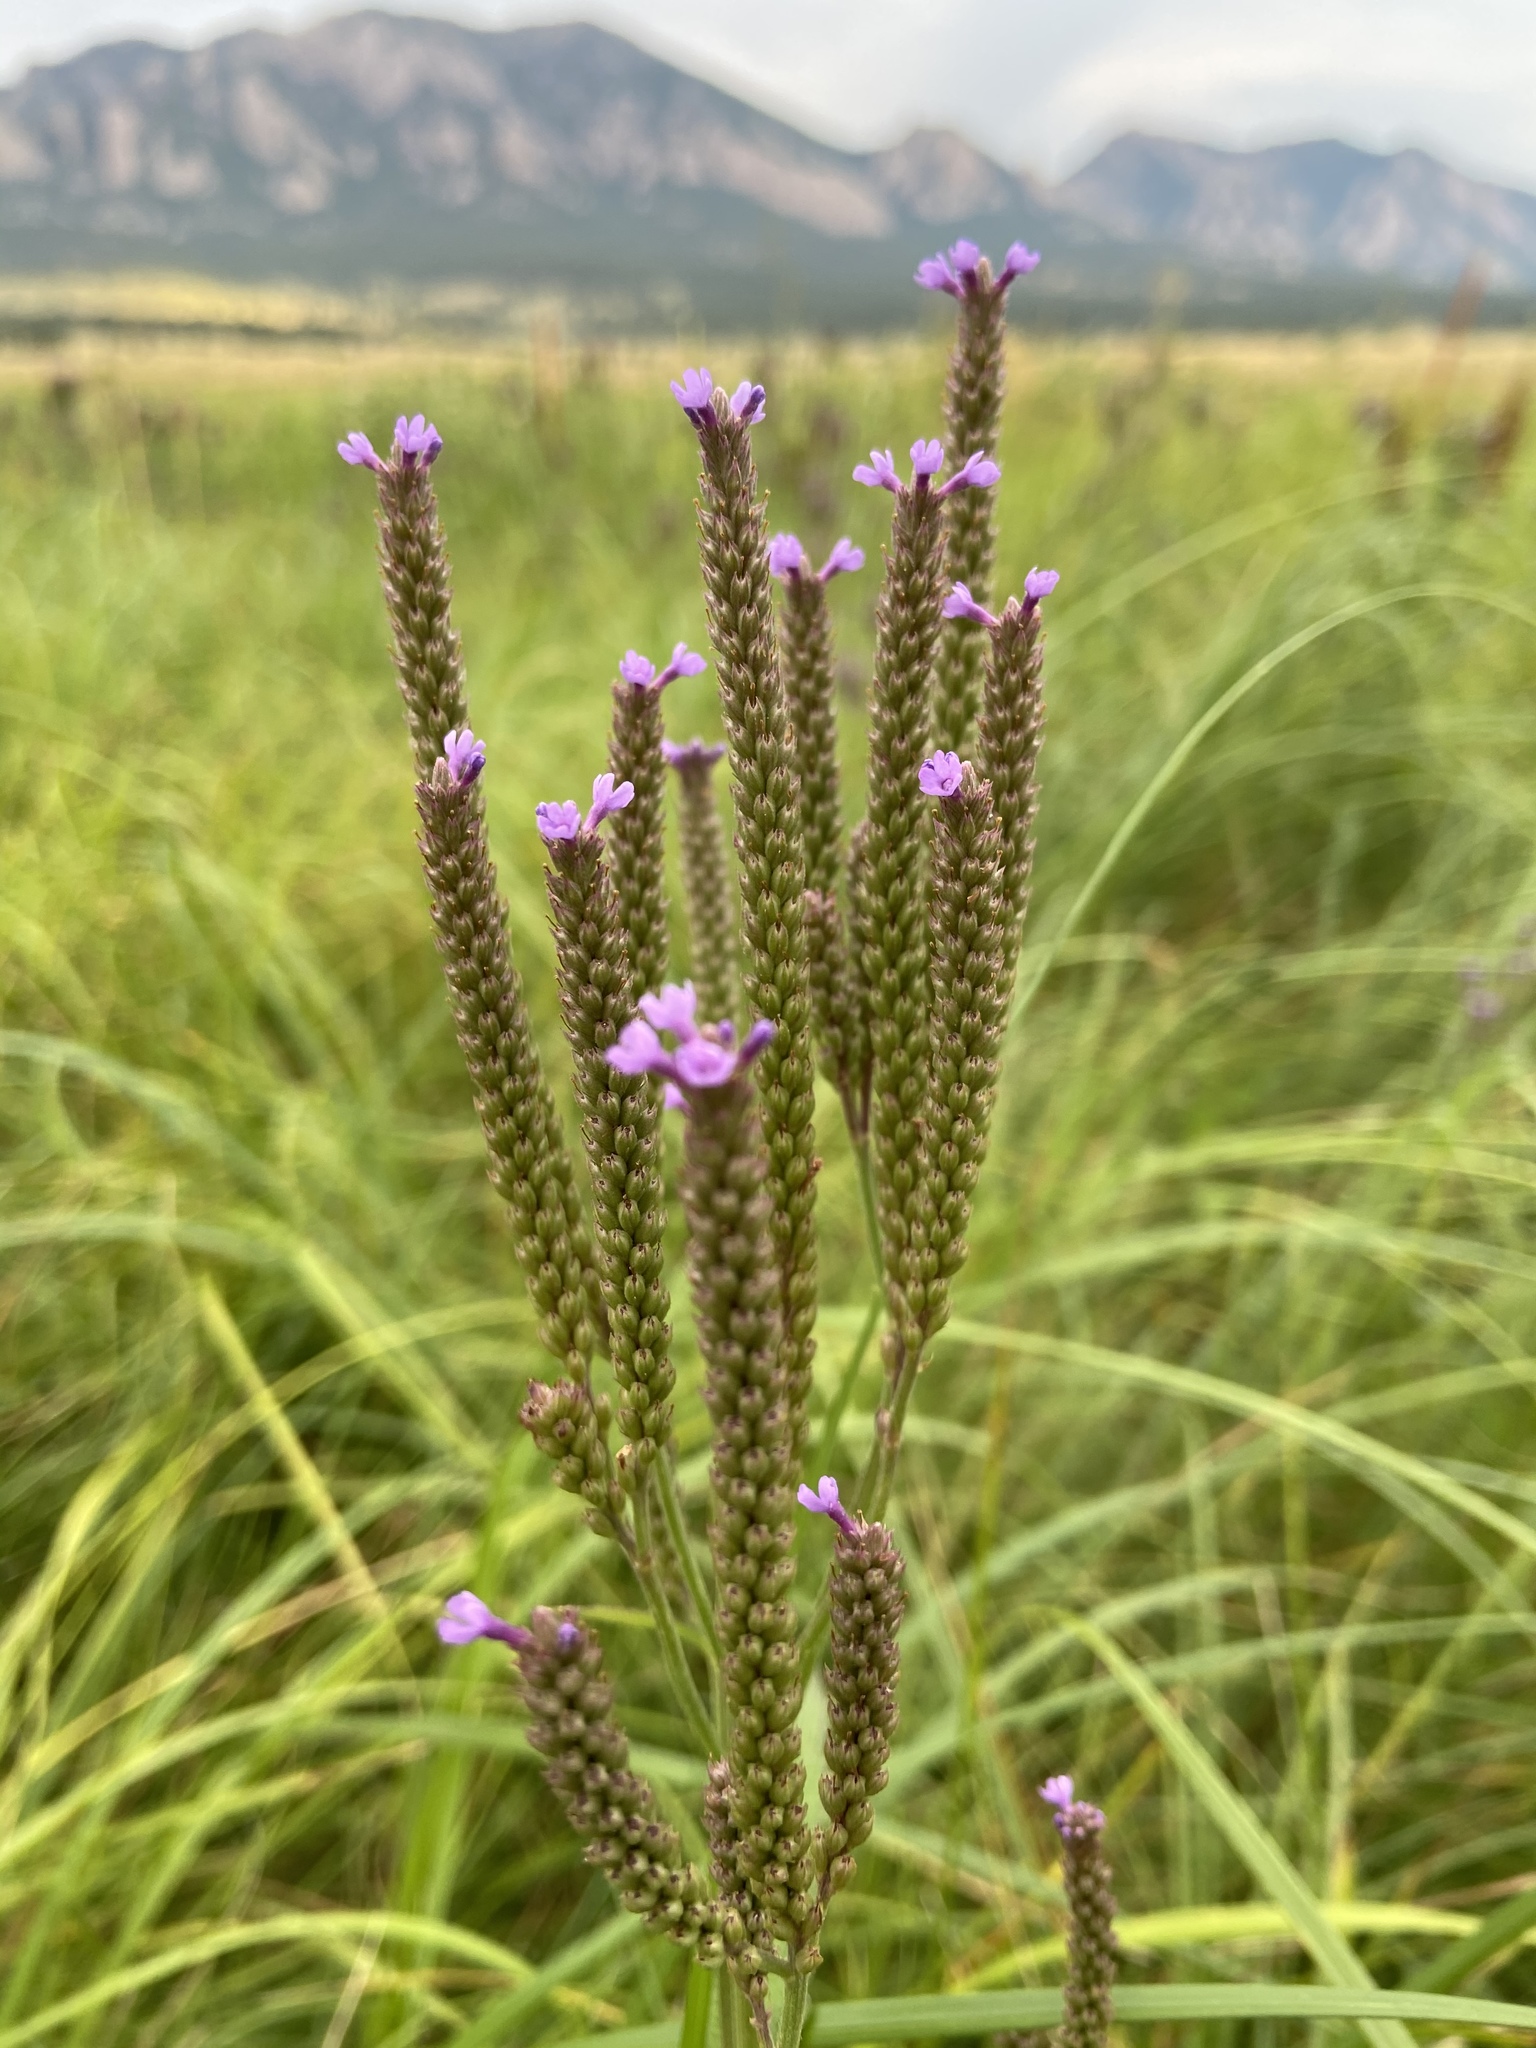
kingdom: Plantae
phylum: Tracheophyta
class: Magnoliopsida
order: Lamiales
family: Verbenaceae
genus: Verbena
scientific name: Verbena hastata
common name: American blue vervain
